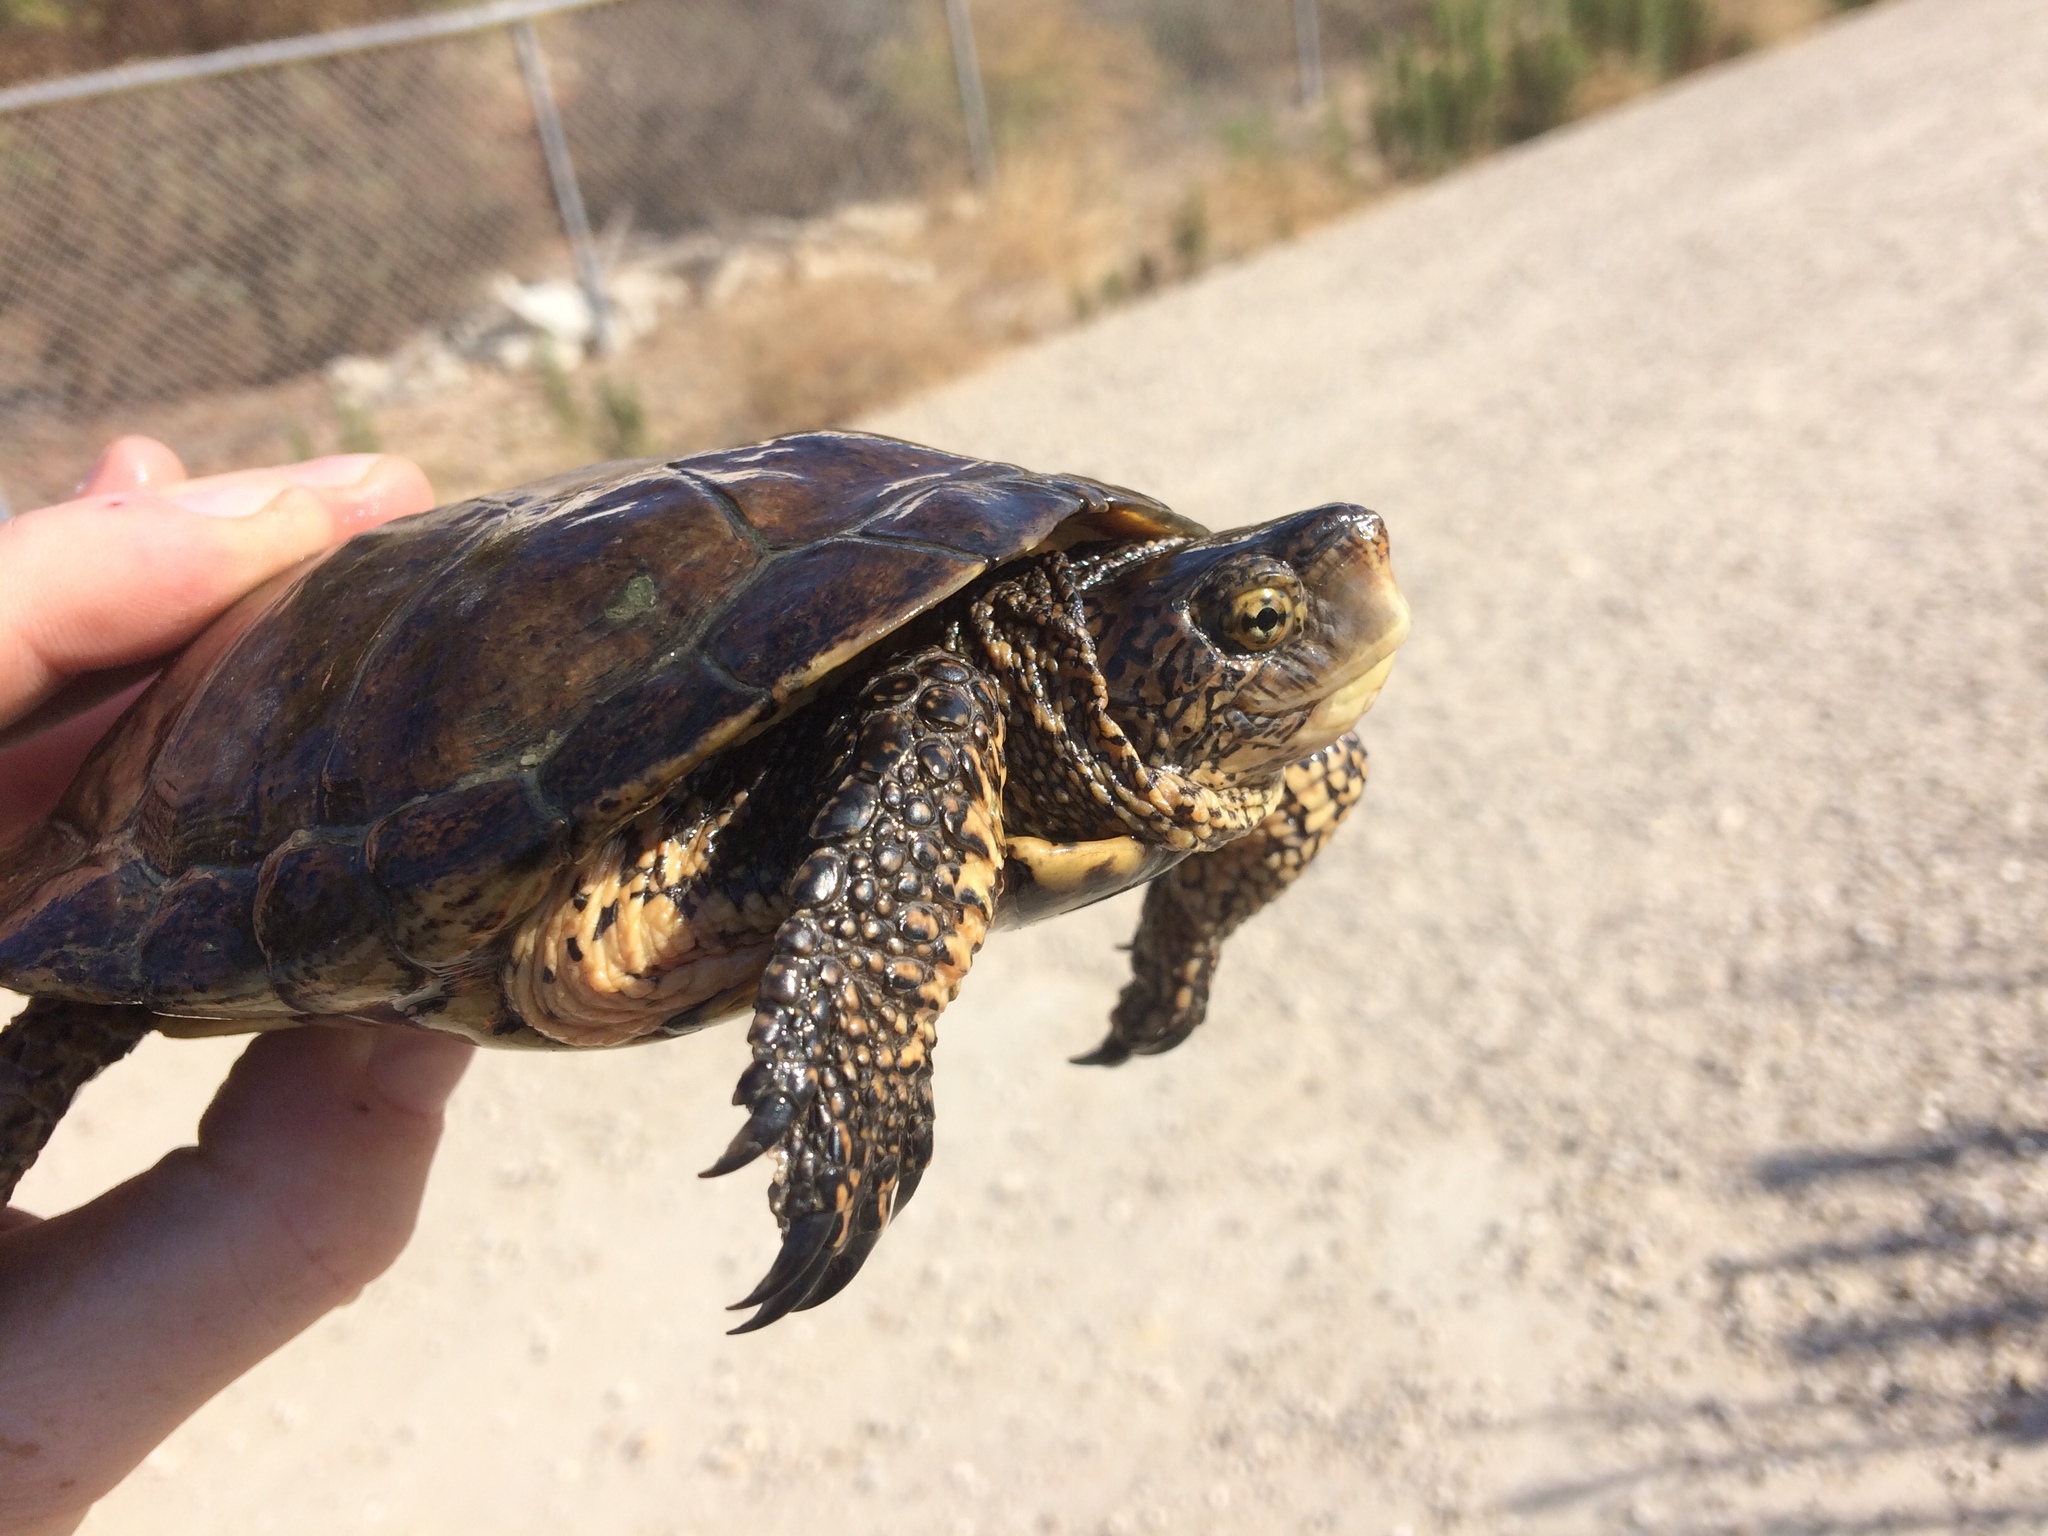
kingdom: Animalia
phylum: Chordata
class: Testudines
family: Emydidae
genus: Actinemys
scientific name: Actinemys marmorata
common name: Western pond turtle
